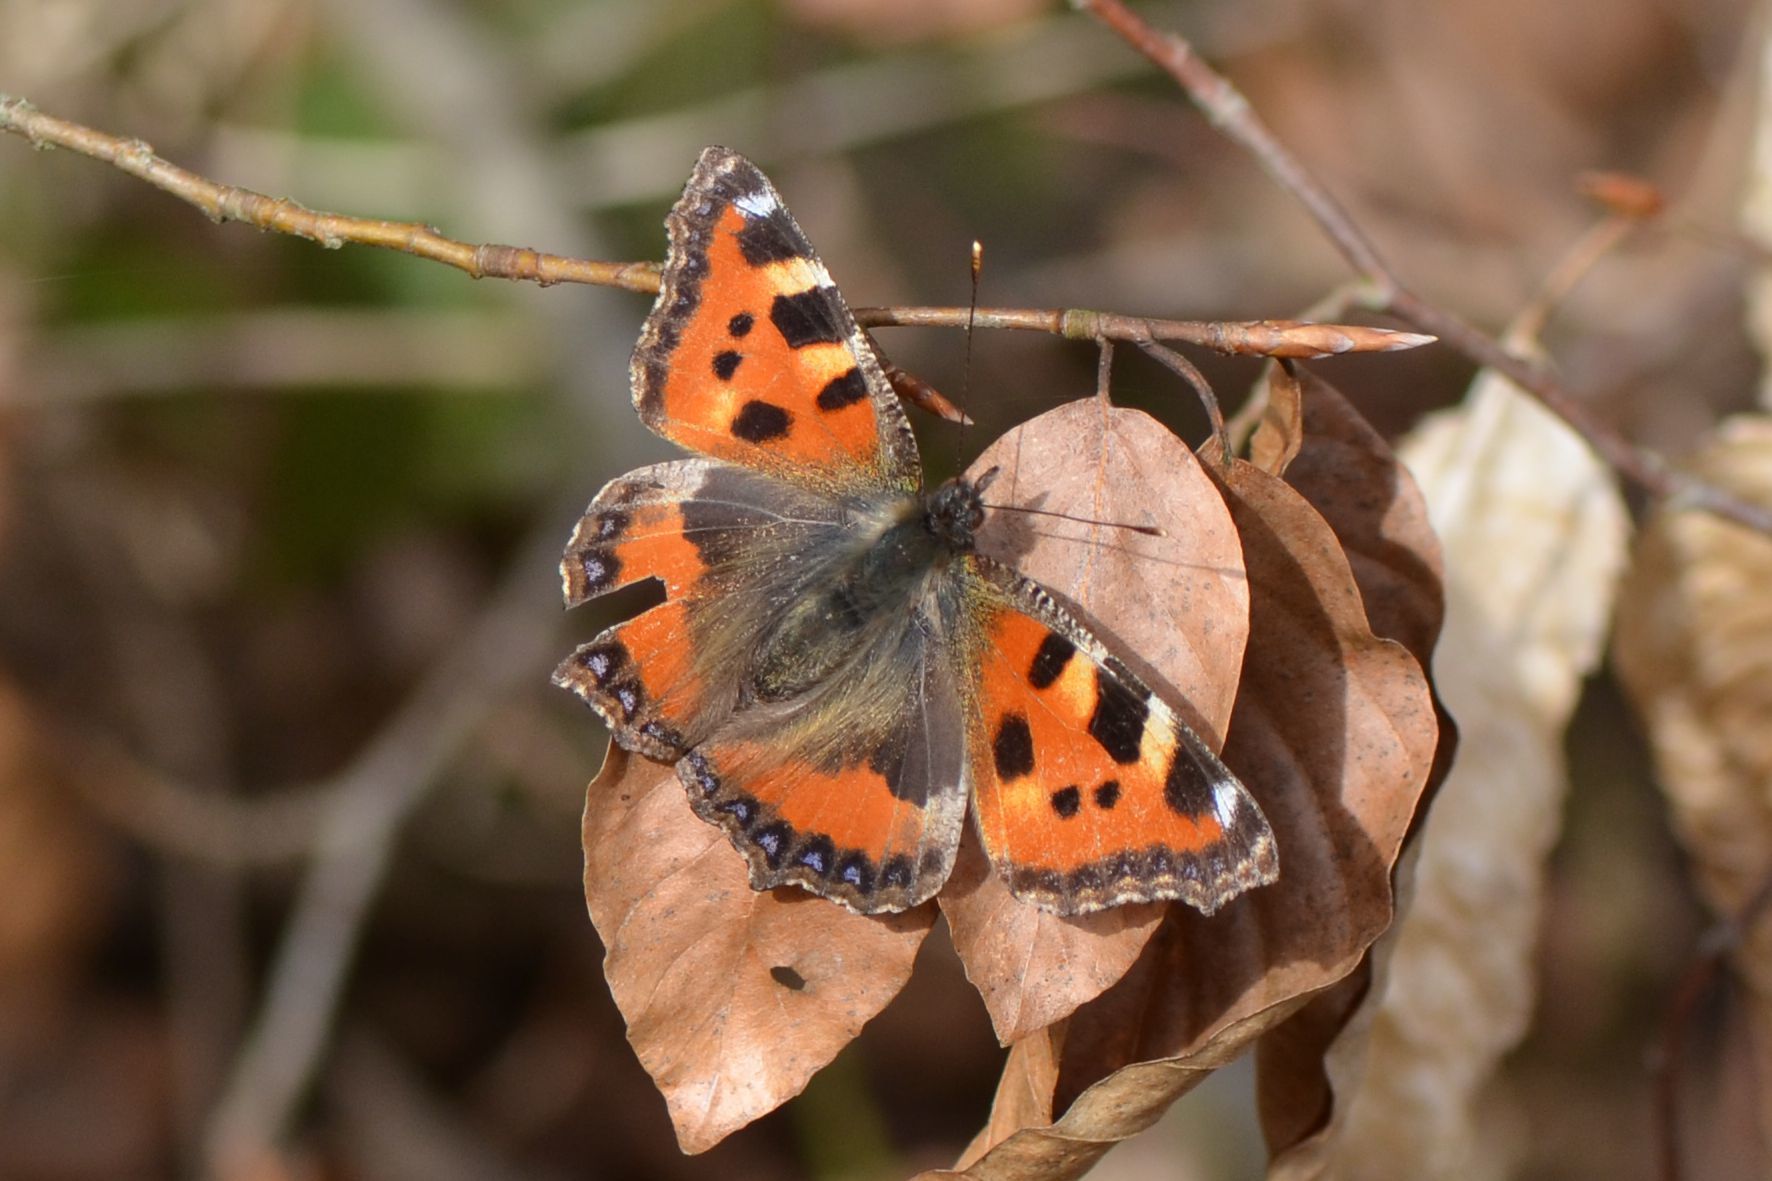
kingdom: Animalia
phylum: Arthropoda
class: Insecta
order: Lepidoptera
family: Nymphalidae
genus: Aglais
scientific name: Aglais urticae
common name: Small tortoiseshell
